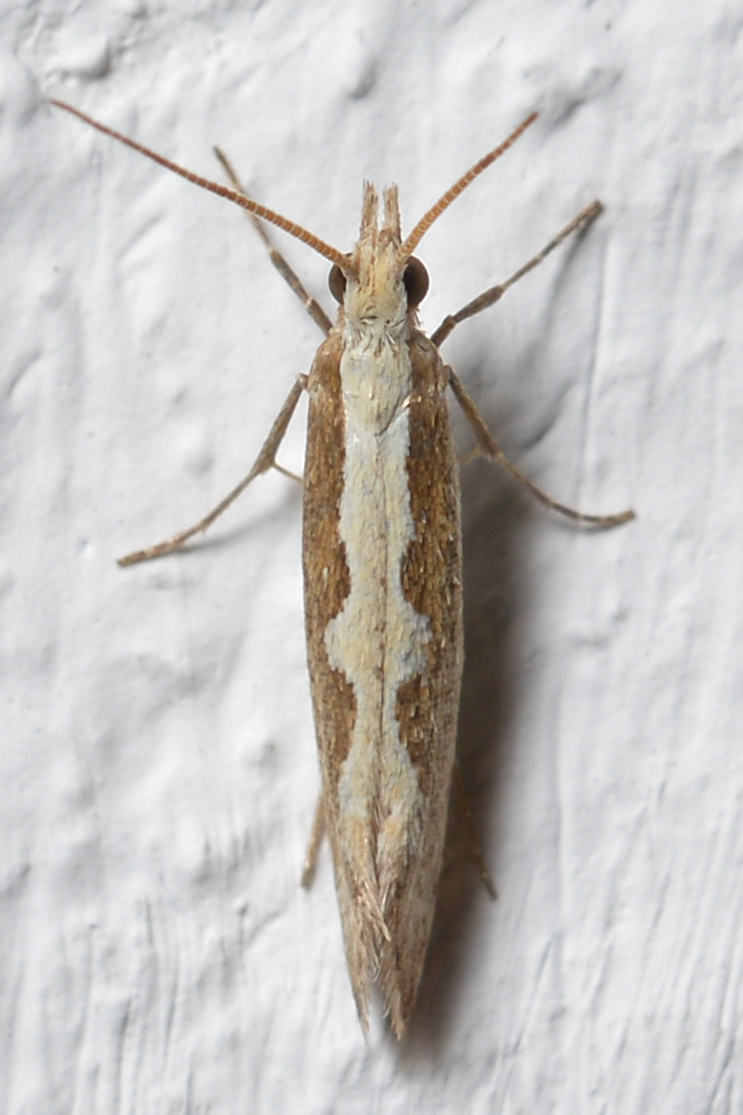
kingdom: Animalia
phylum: Arthropoda
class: Insecta
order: Lepidoptera
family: Plutellidae
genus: Plutella
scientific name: Plutella xylostella
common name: Diamond-back moth
